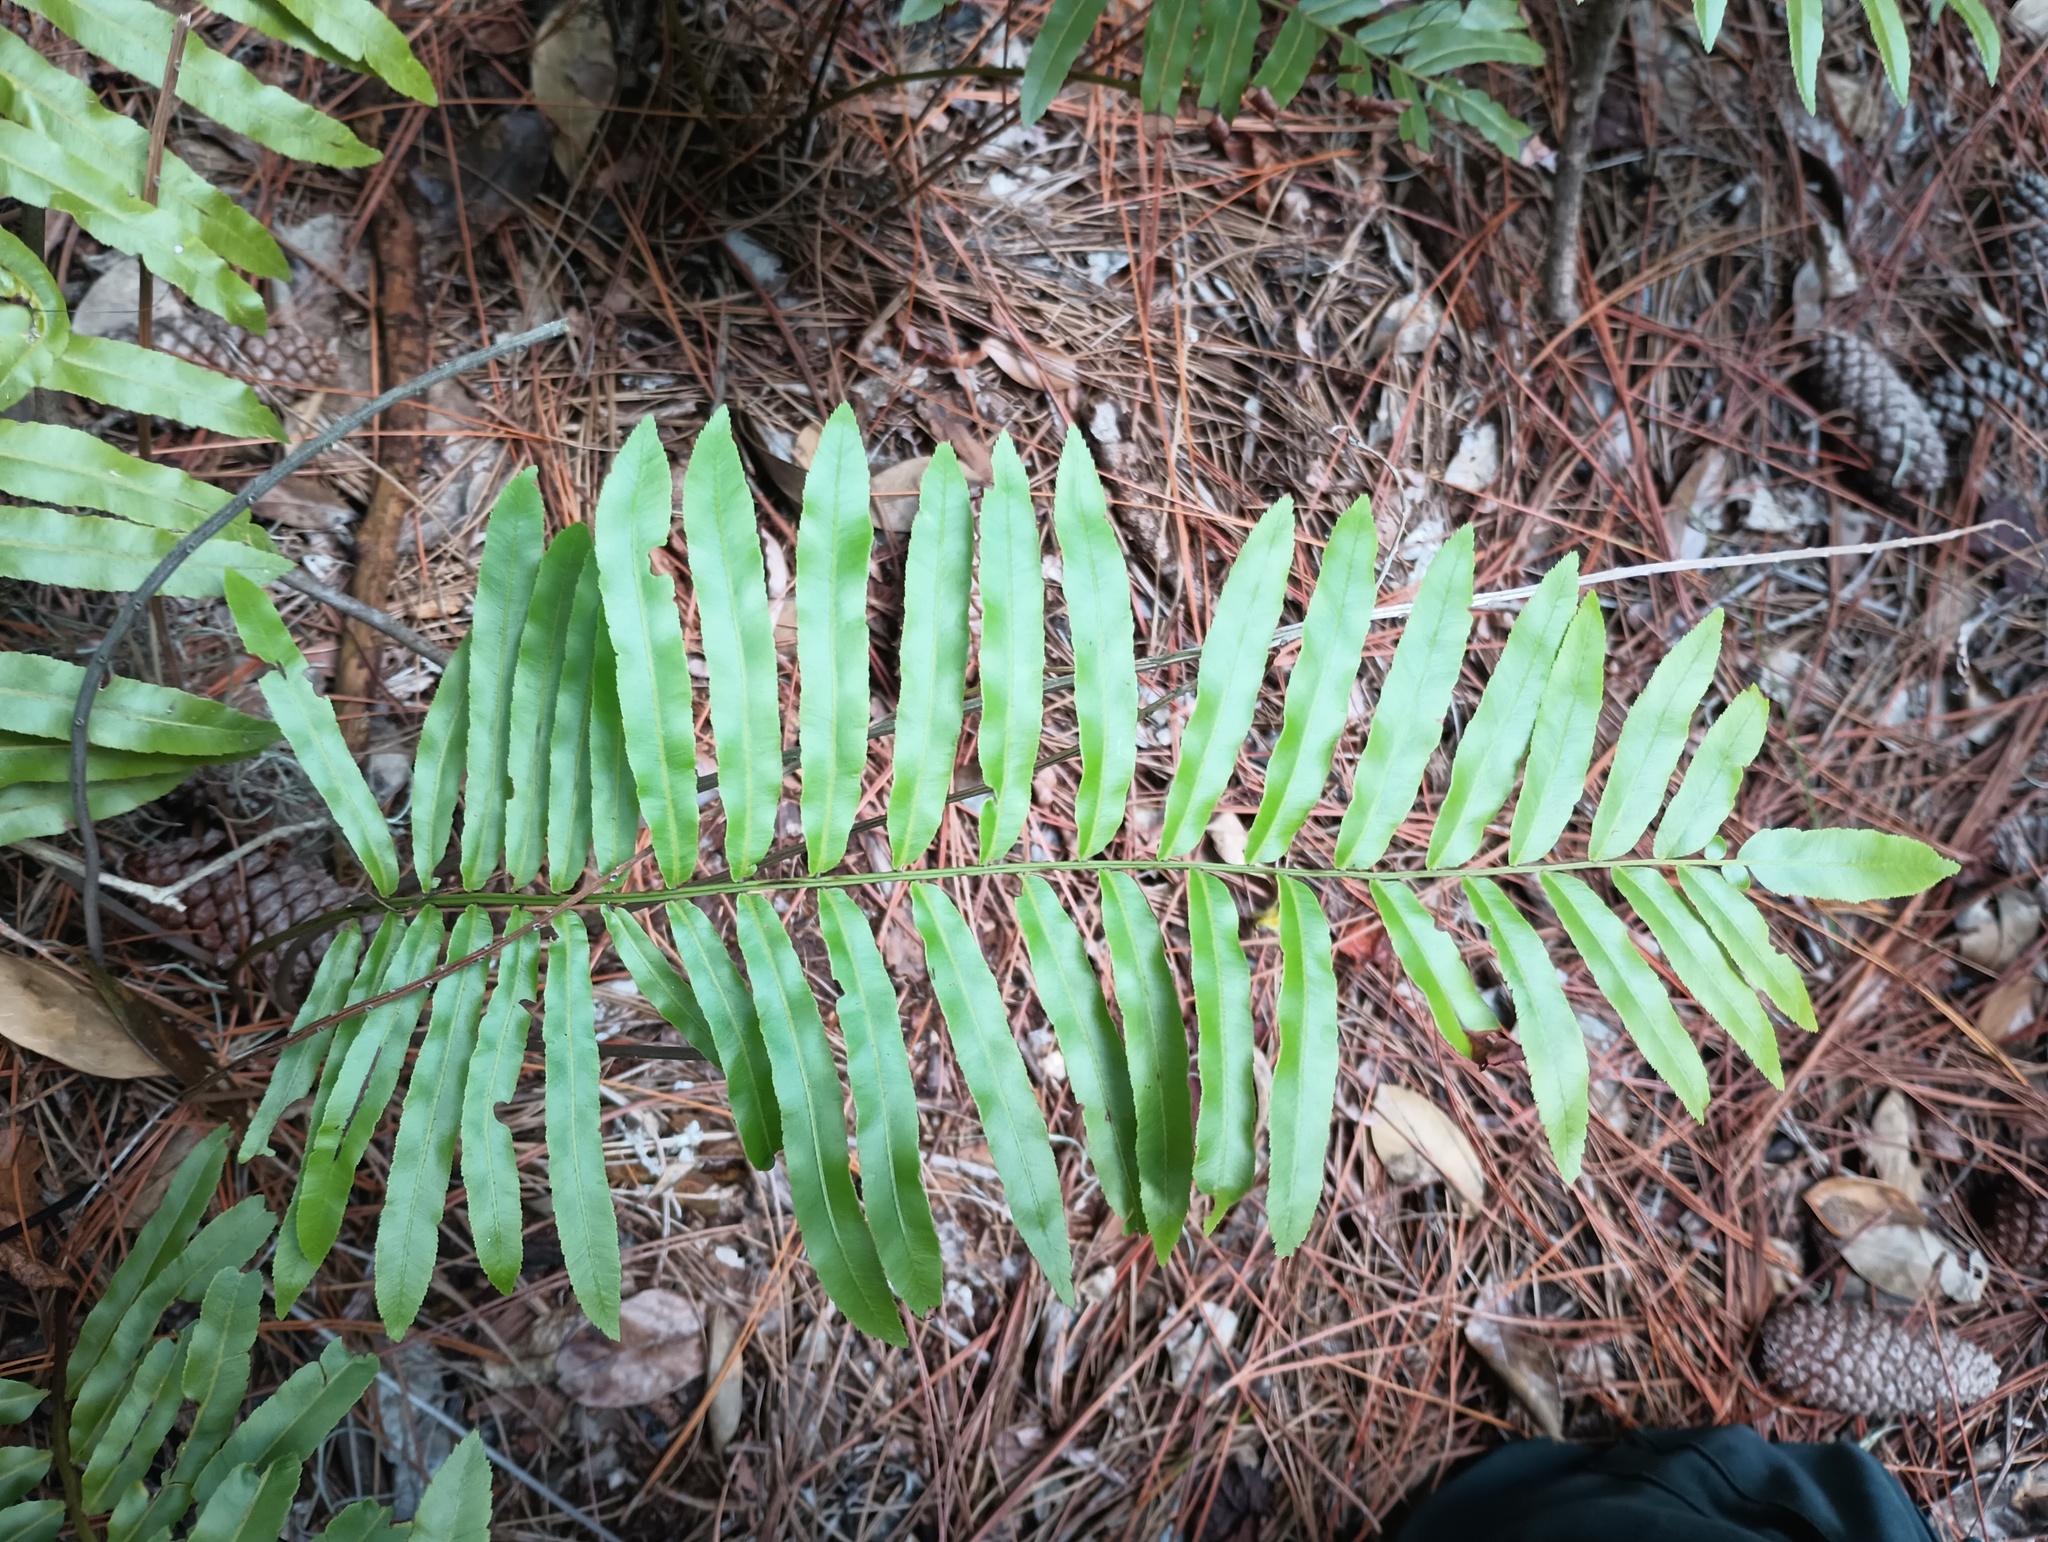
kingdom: Plantae
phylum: Tracheophyta
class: Polypodiopsida
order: Polypodiales
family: Blechnaceae
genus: Telmatoblechnum
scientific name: Telmatoblechnum serrulatum
